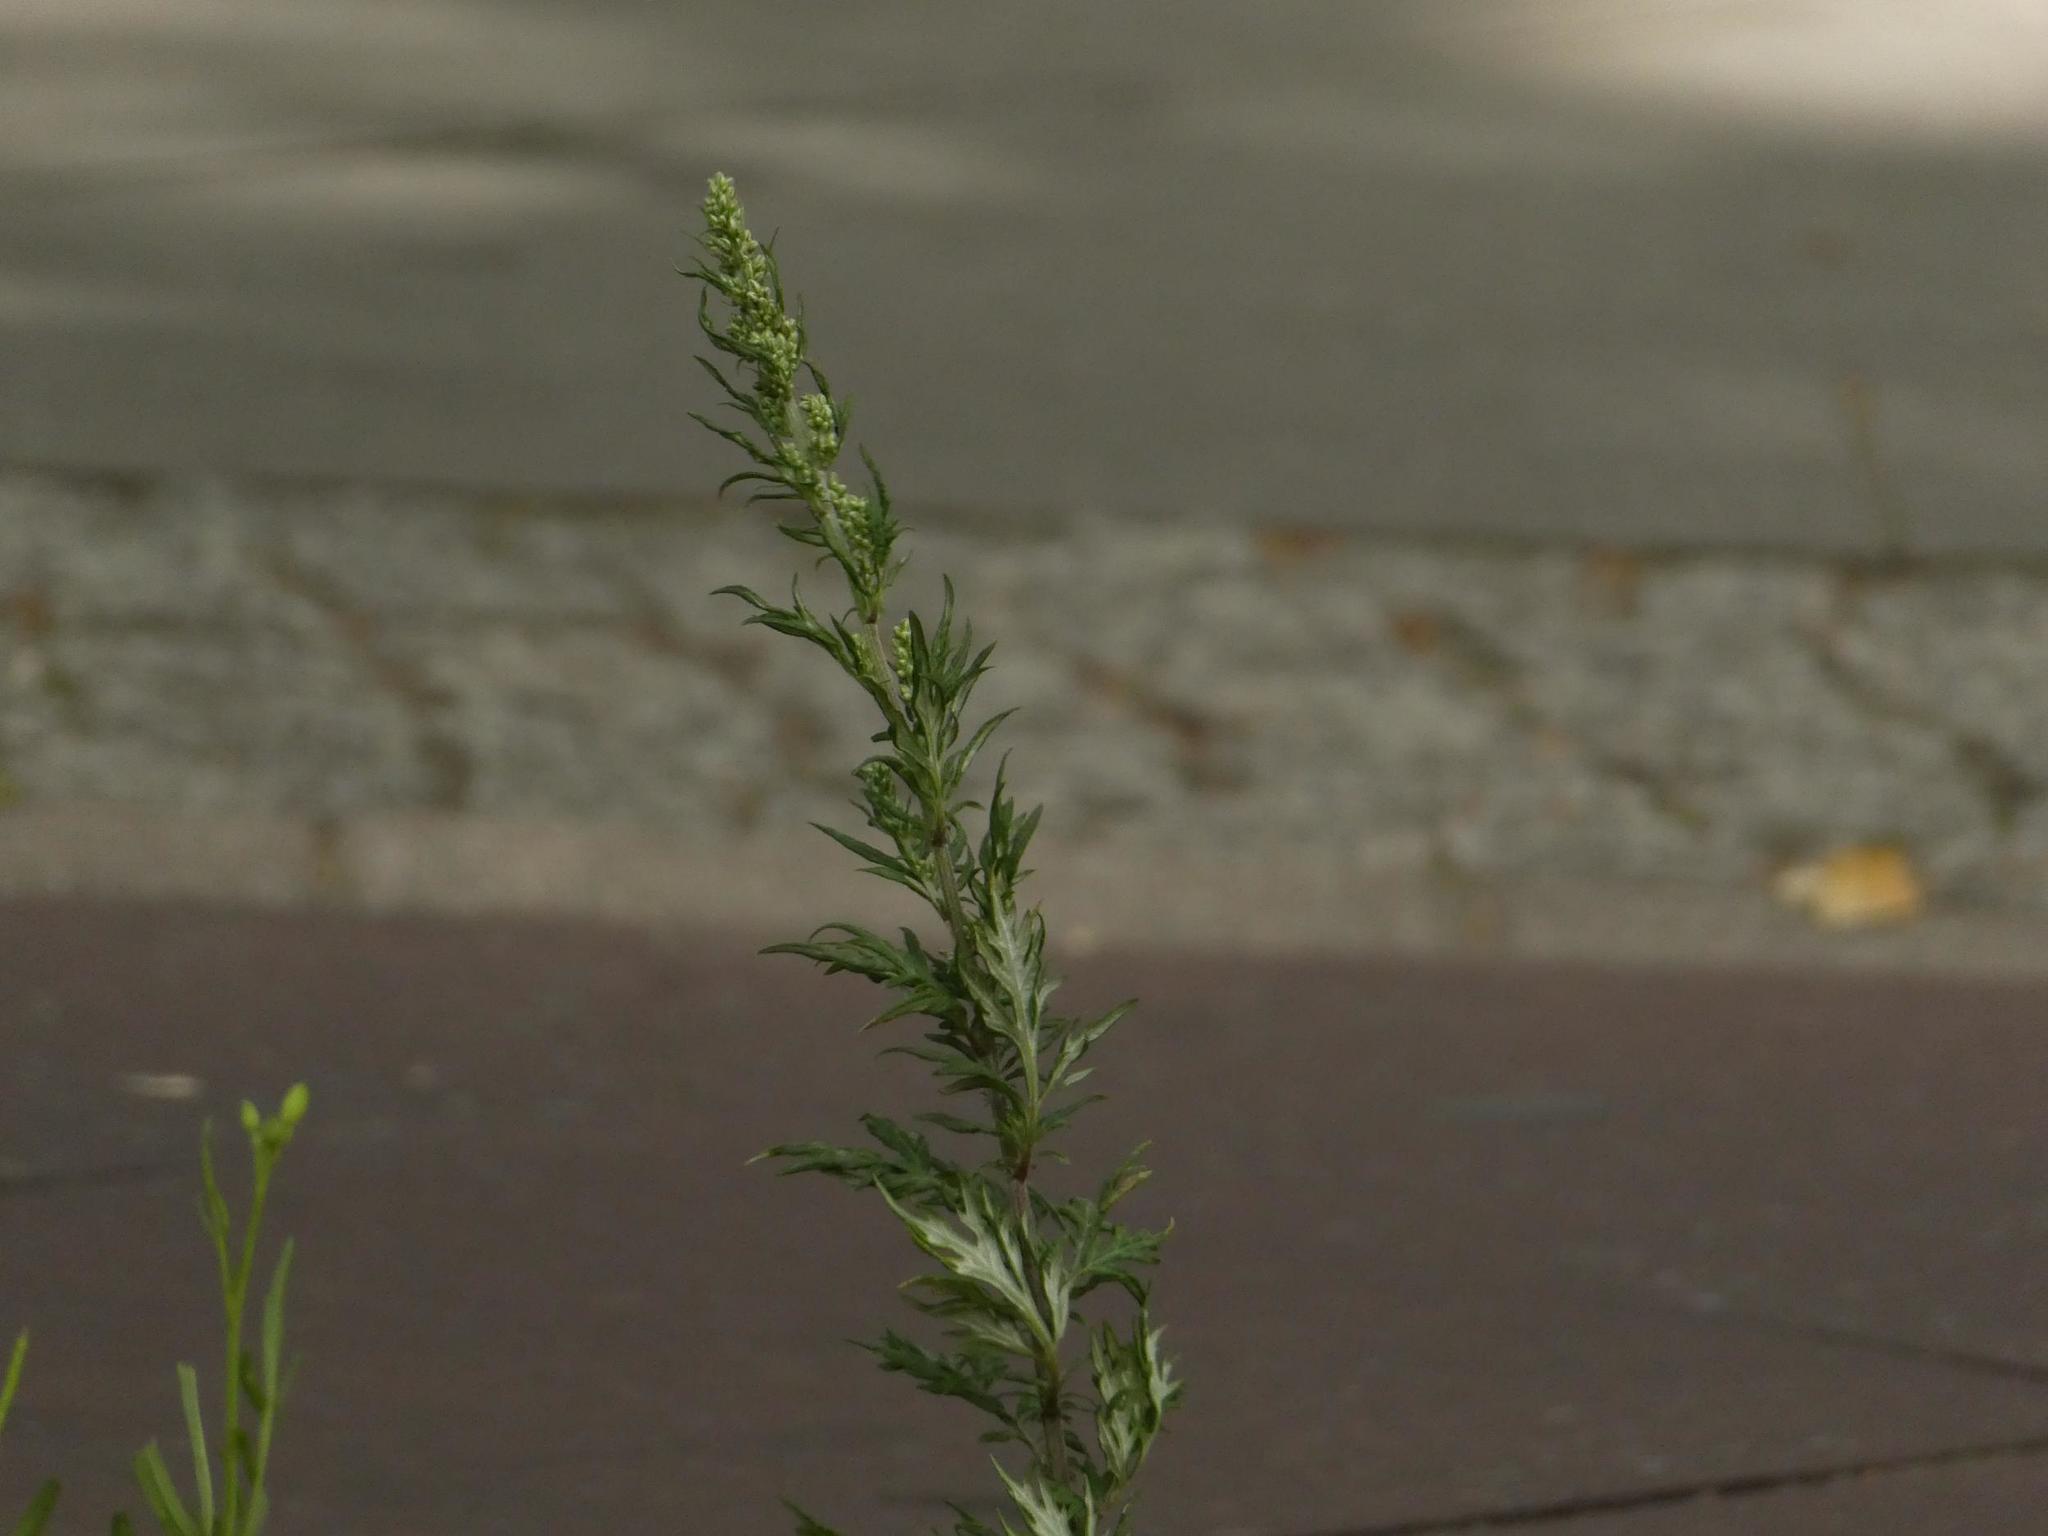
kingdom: Plantae
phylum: Tracheophyta
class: Magnoliopsida
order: Asterales
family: Asteraceae
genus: Artemisia
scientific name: Artemisia vulgaris
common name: Mugwort
